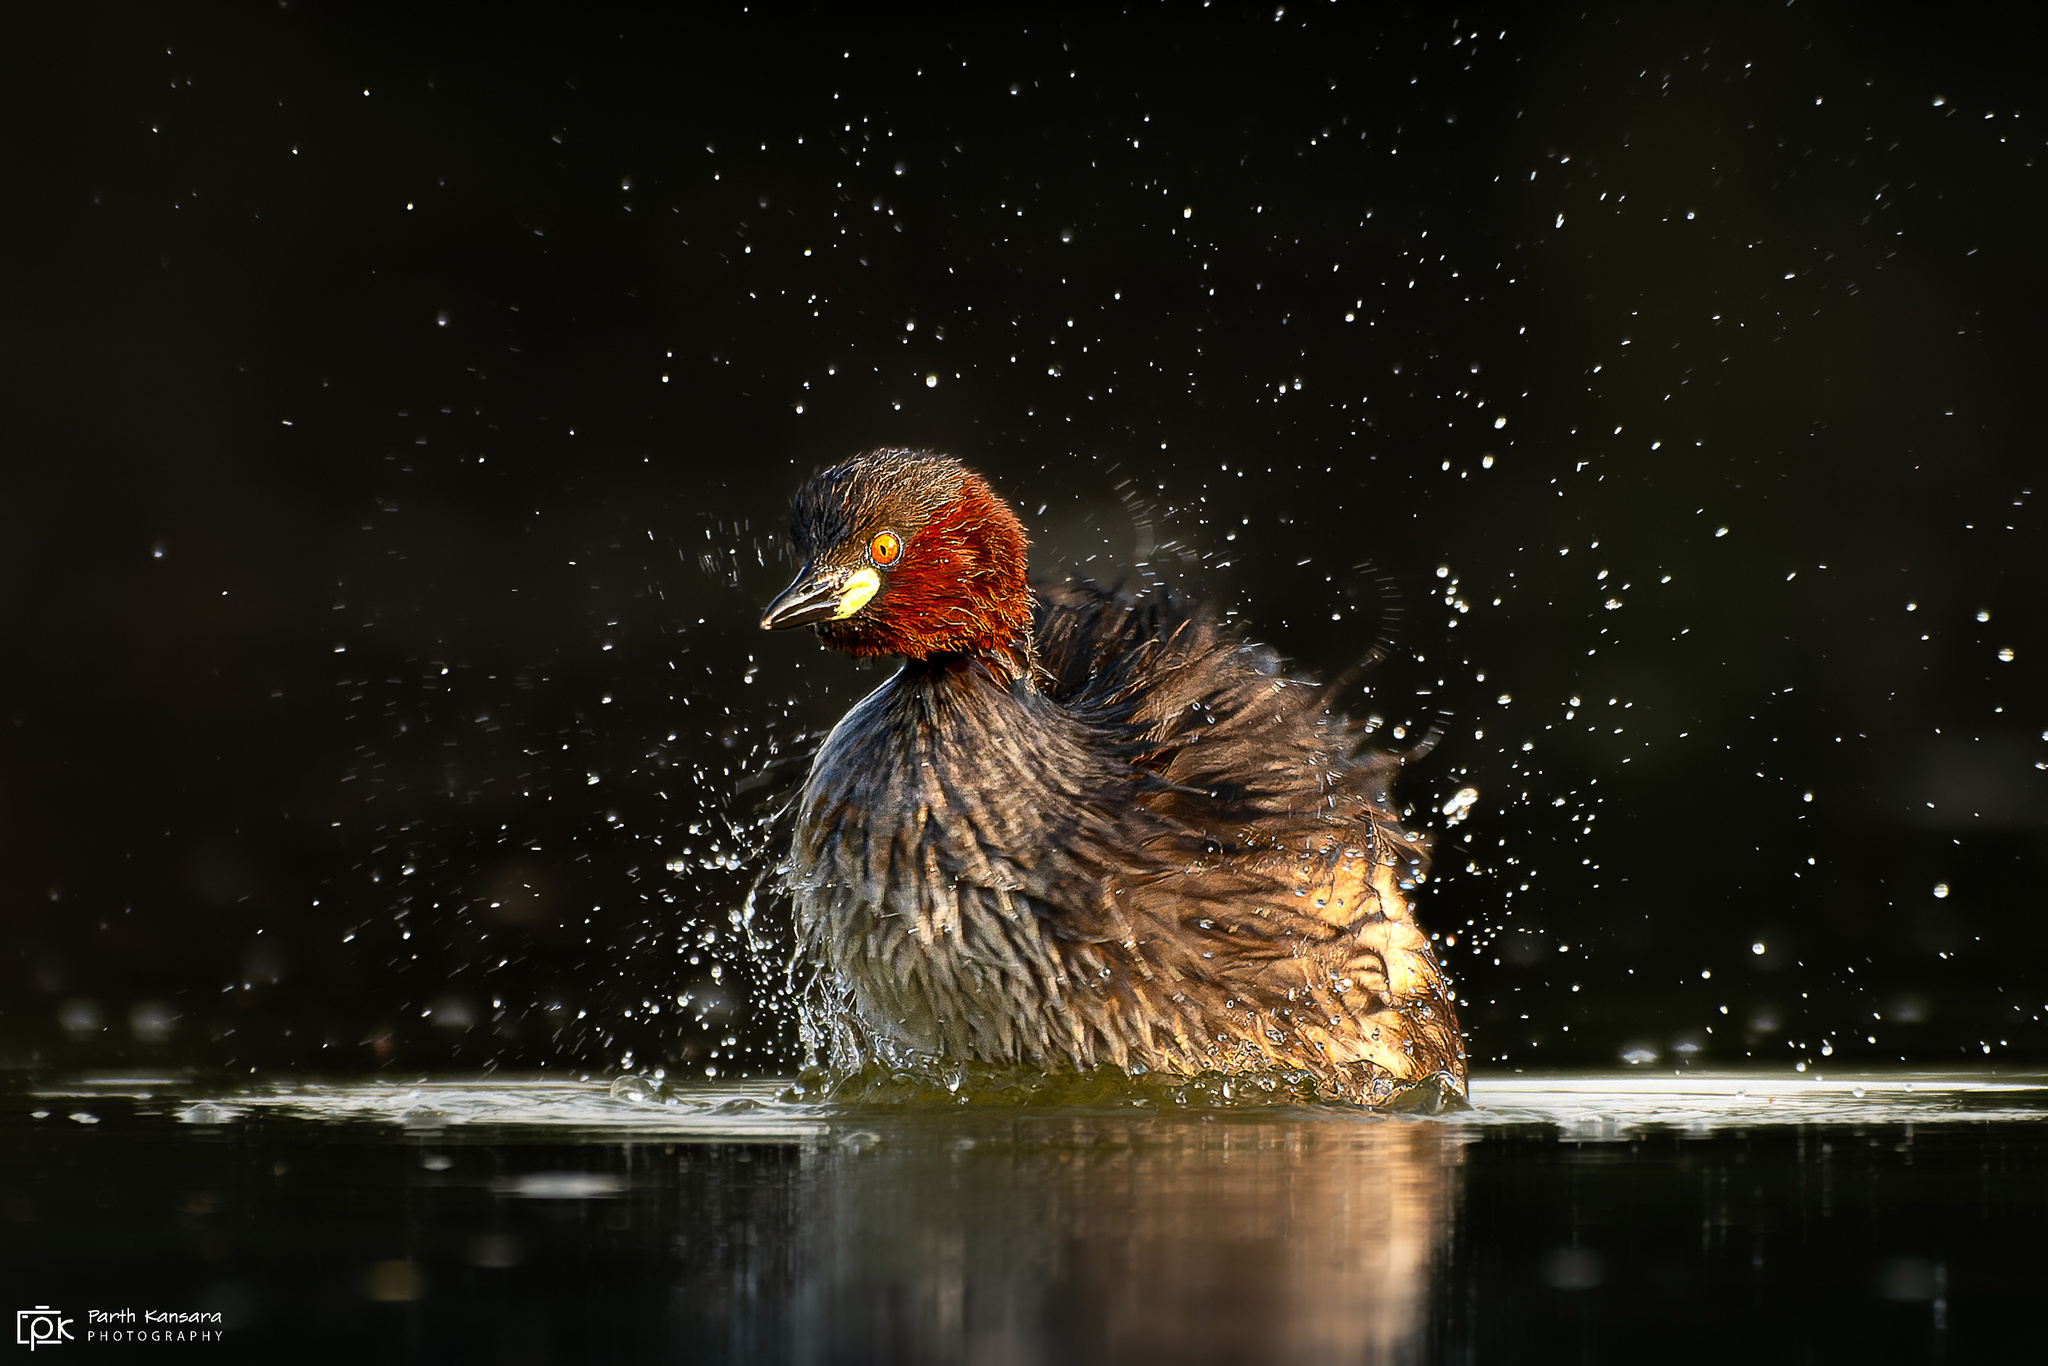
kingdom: Animalia
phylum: Chordata
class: Aves
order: Podicipediformes
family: Podicipedidae
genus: Tachybaptus
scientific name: Tachybaptus ruficollis
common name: Little grebe
